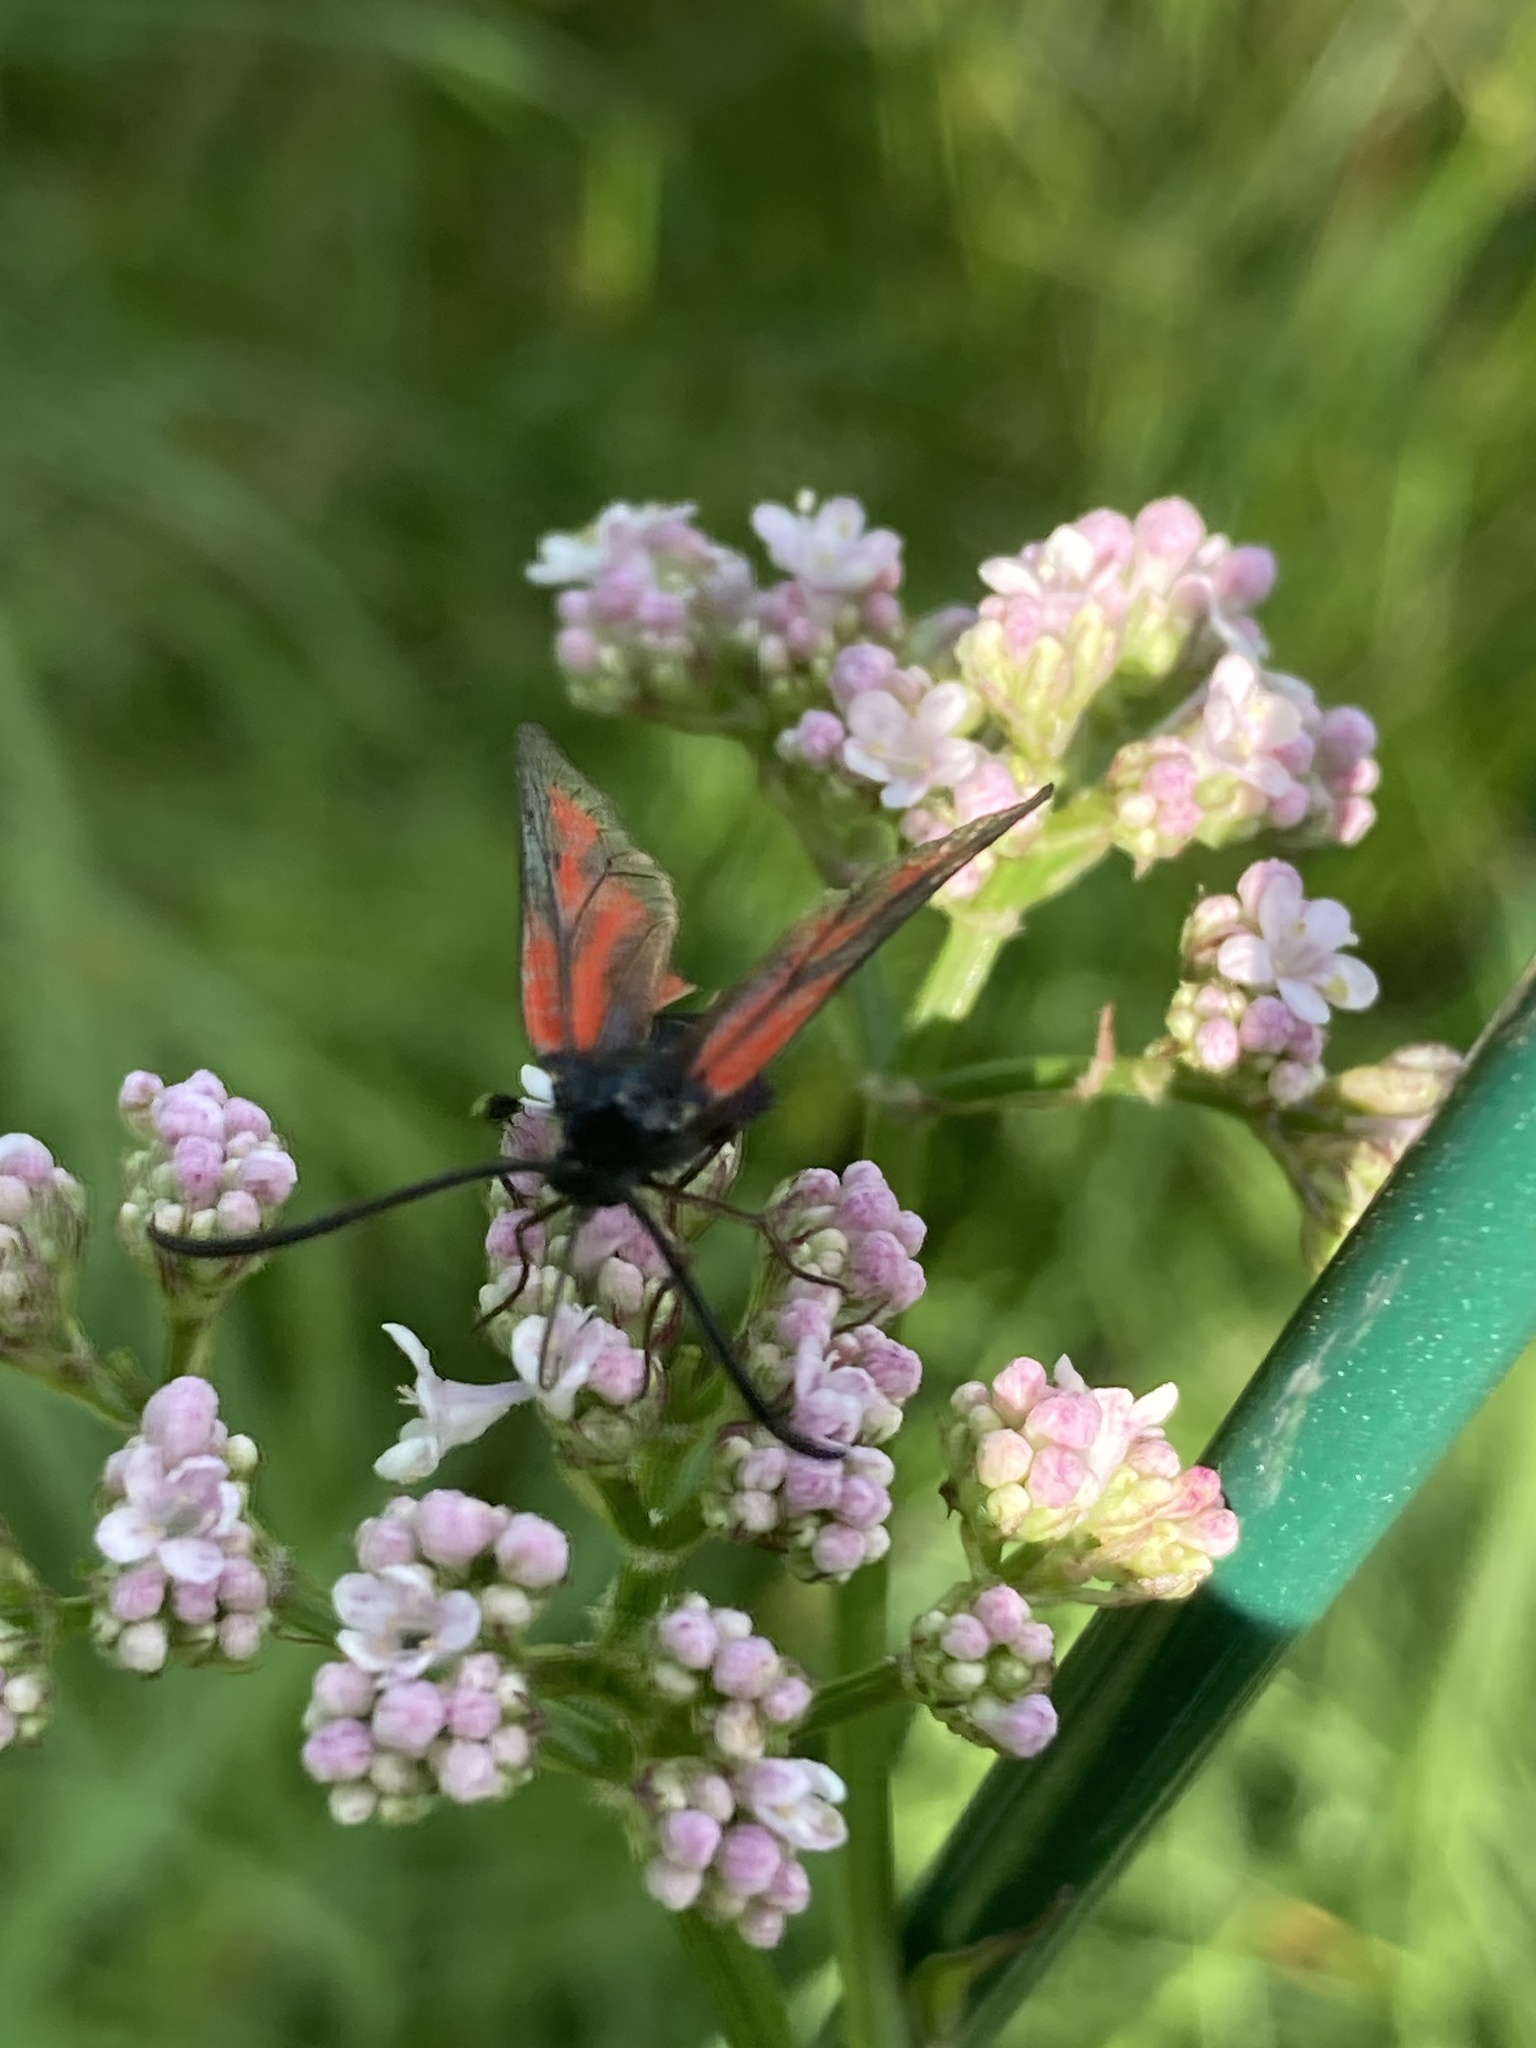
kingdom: Animalia
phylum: Arthropoda
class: Insecta
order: Lepidoptera
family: Zygaenidae
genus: Zygaena
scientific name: Zygaena osterodensis
